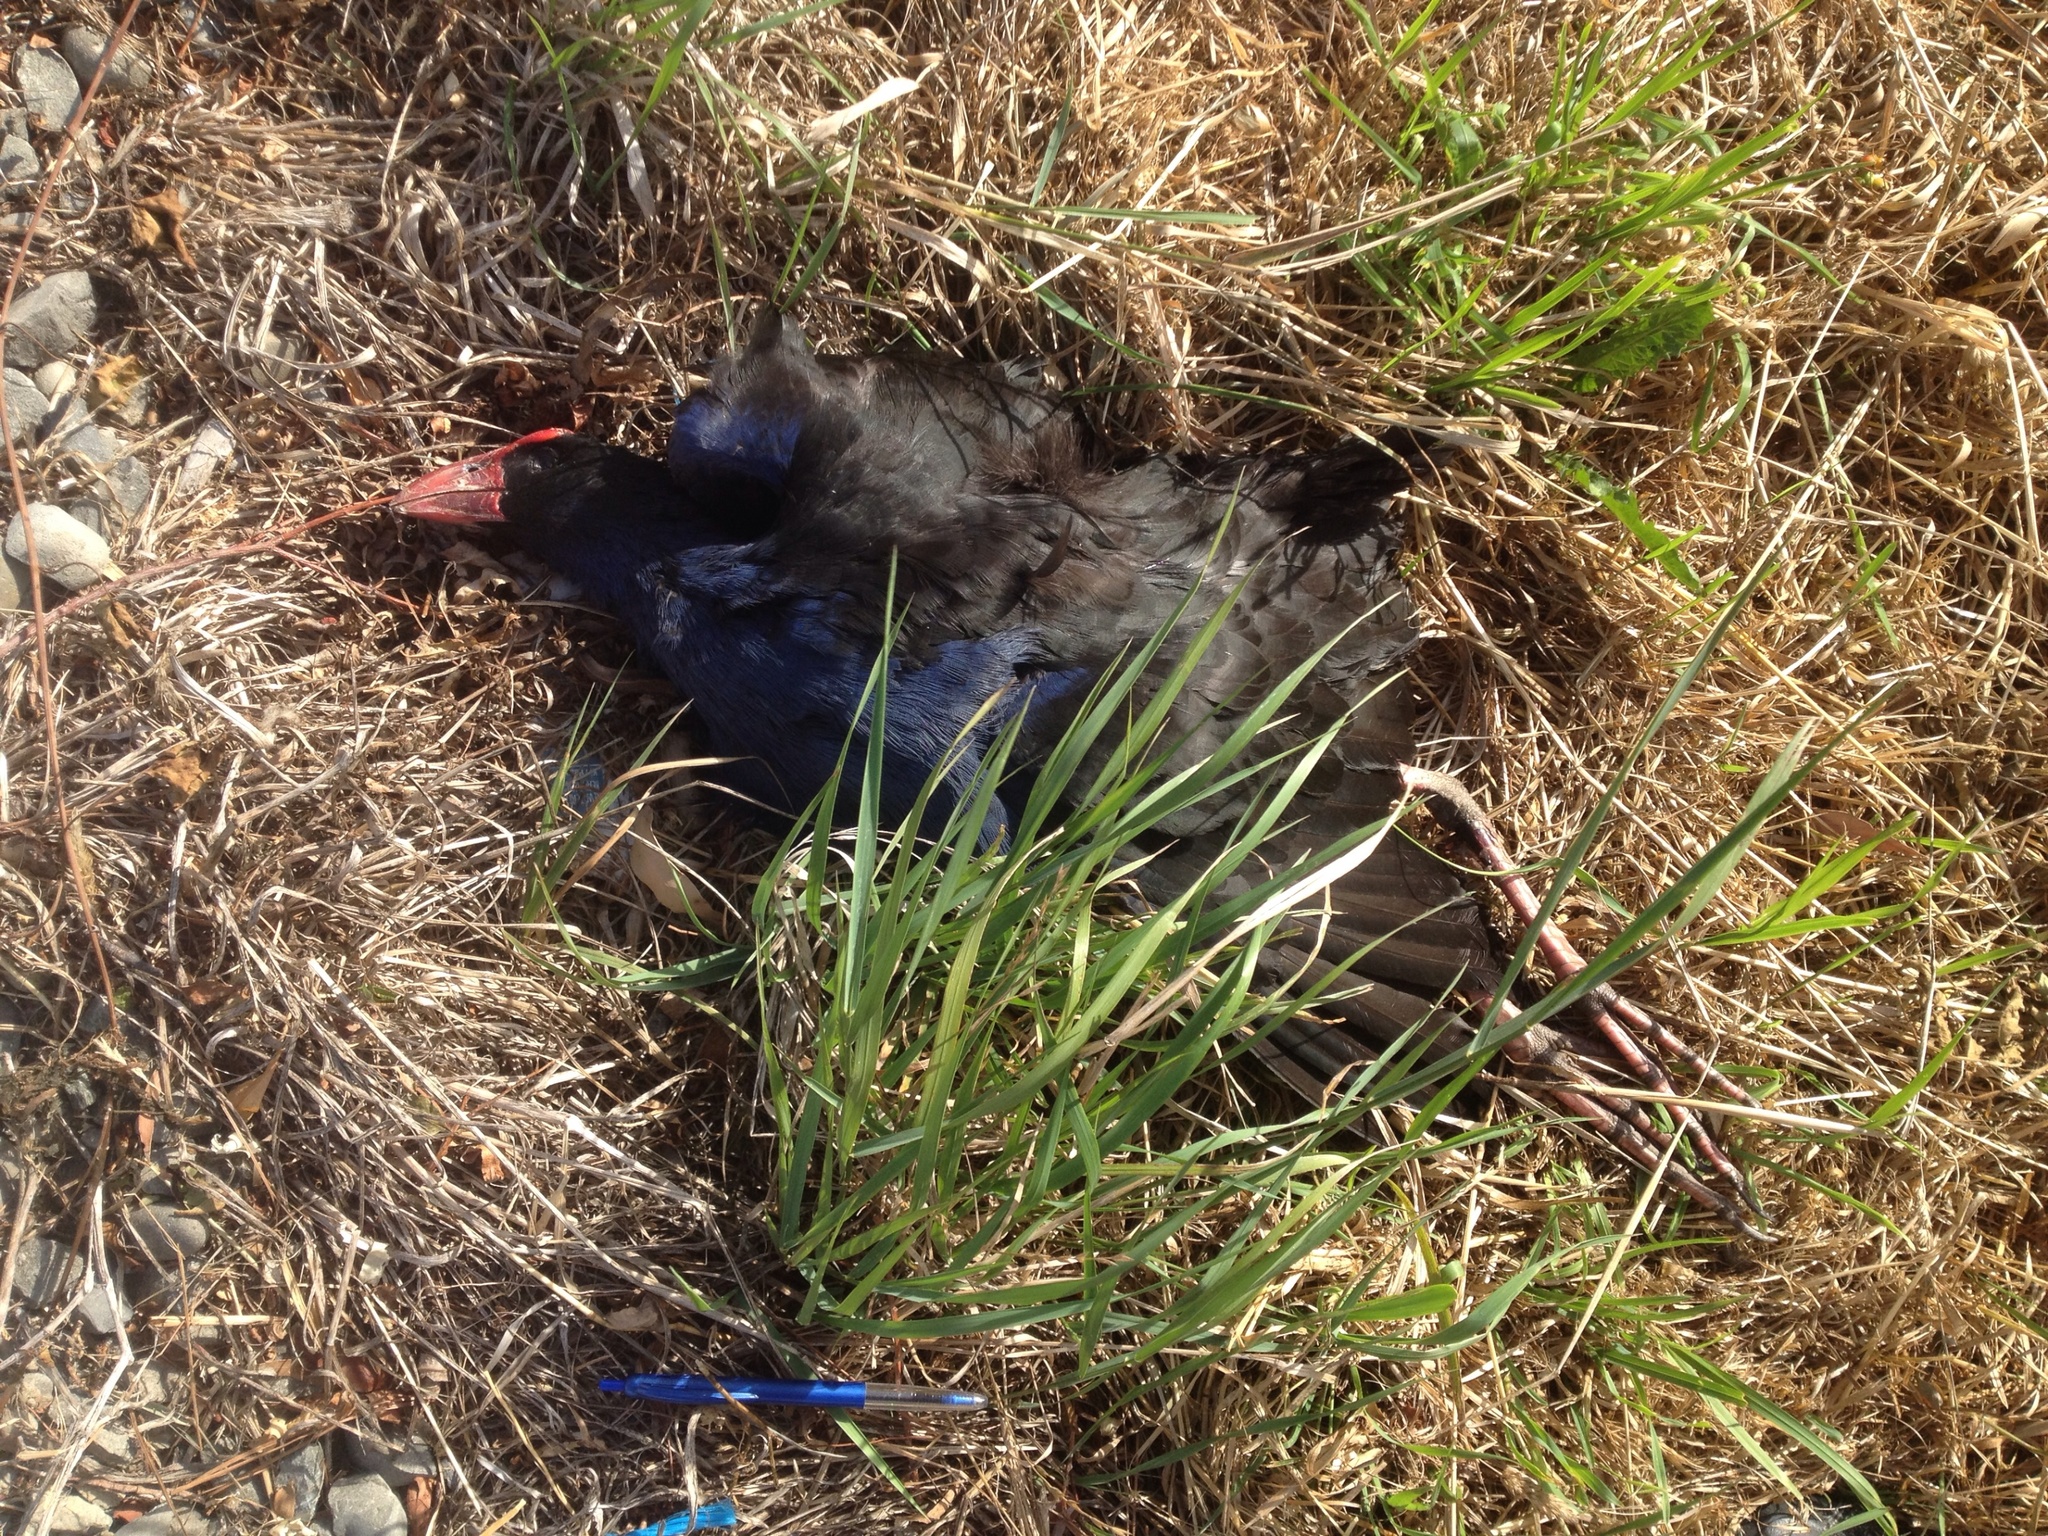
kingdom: Animalia
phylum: Chordata
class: Aves
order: Gruiformes
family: Rallidae
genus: Porphyrio
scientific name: Porphyrio melanotus
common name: Australasian swamphen
